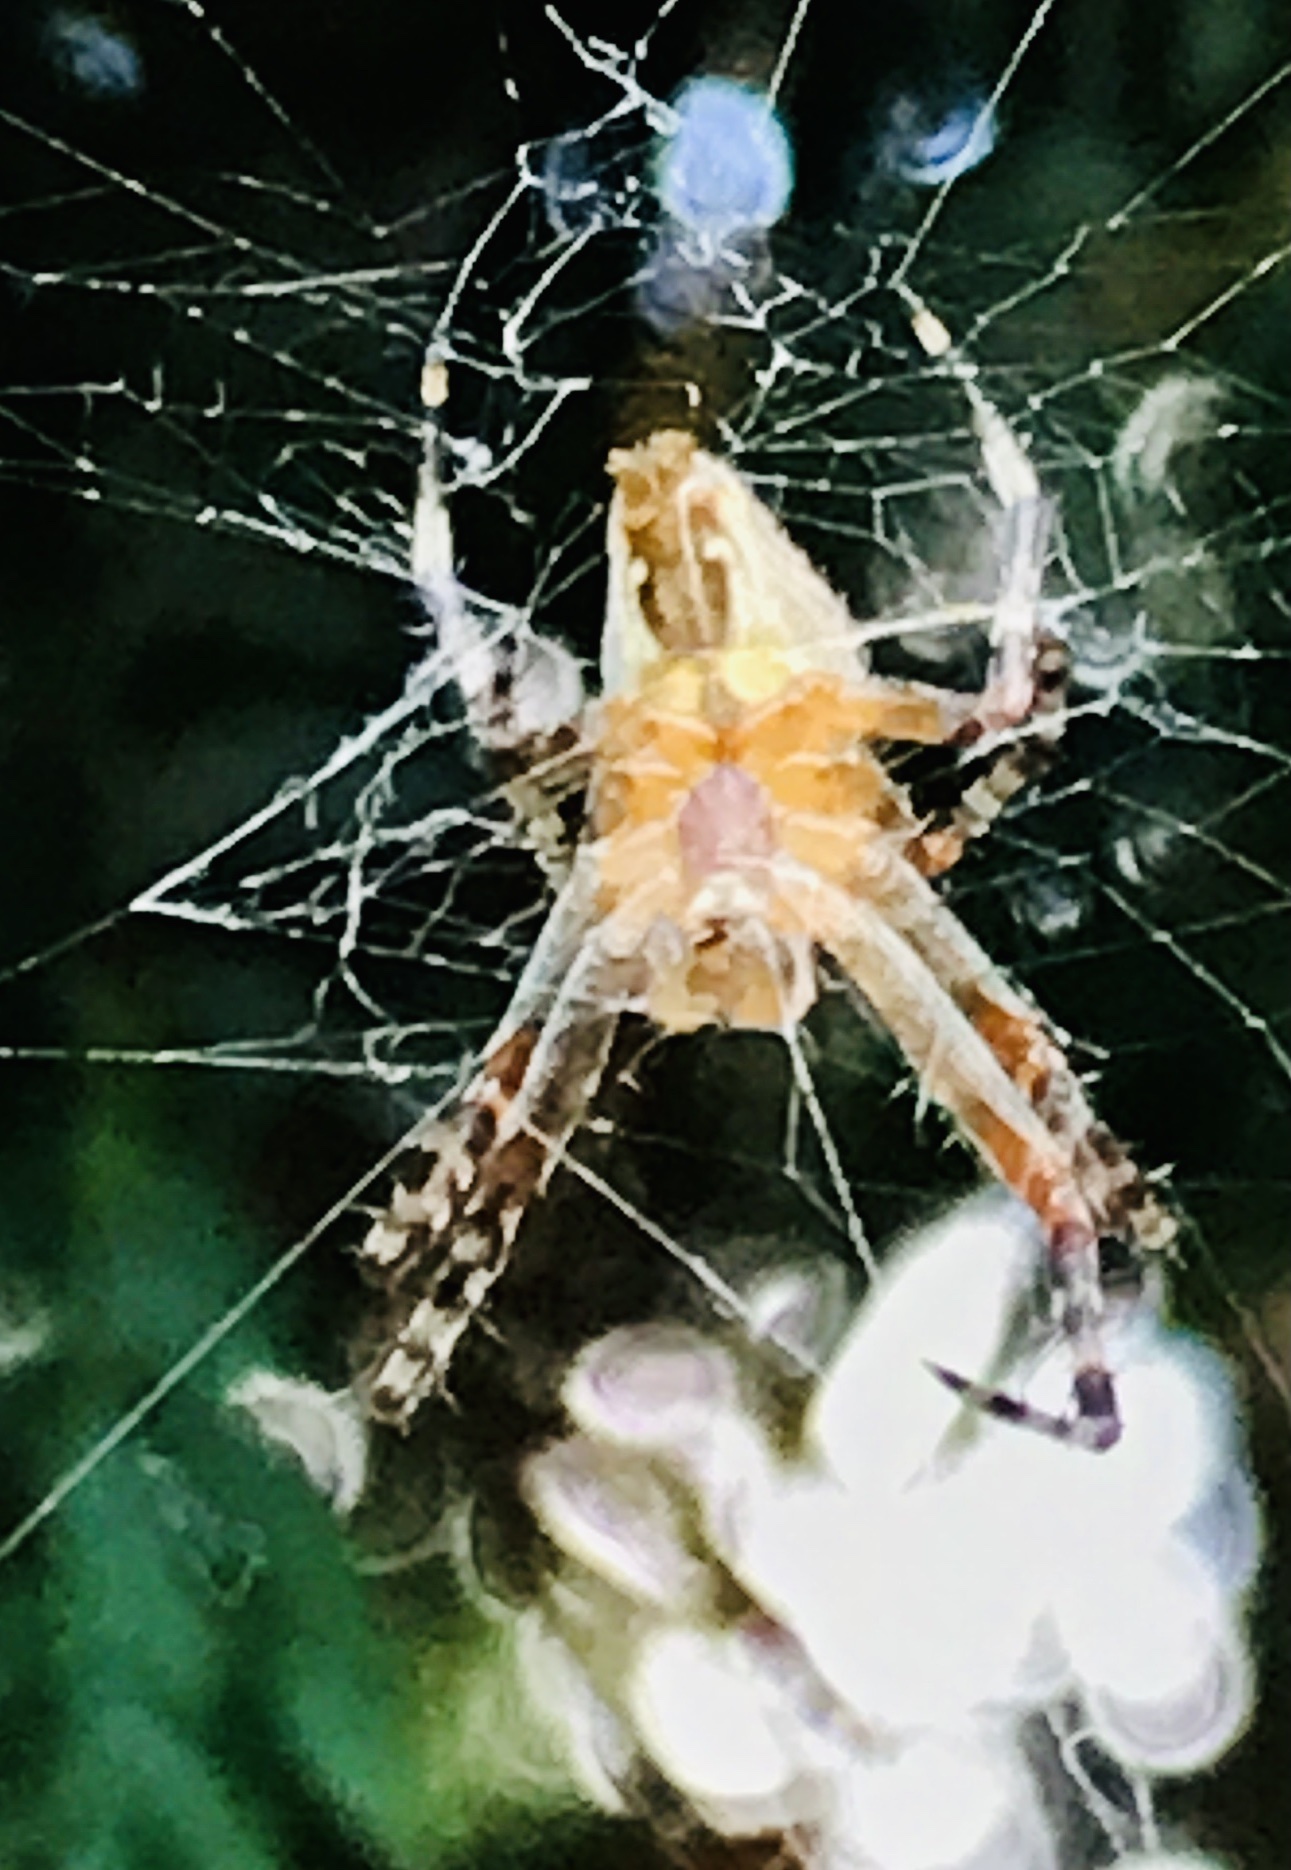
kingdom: Animalia
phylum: Arthropoda
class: Arachnida
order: Araneae
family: Araneidae
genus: Araneus
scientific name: Araneus diadematus
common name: Cross orbweaver
